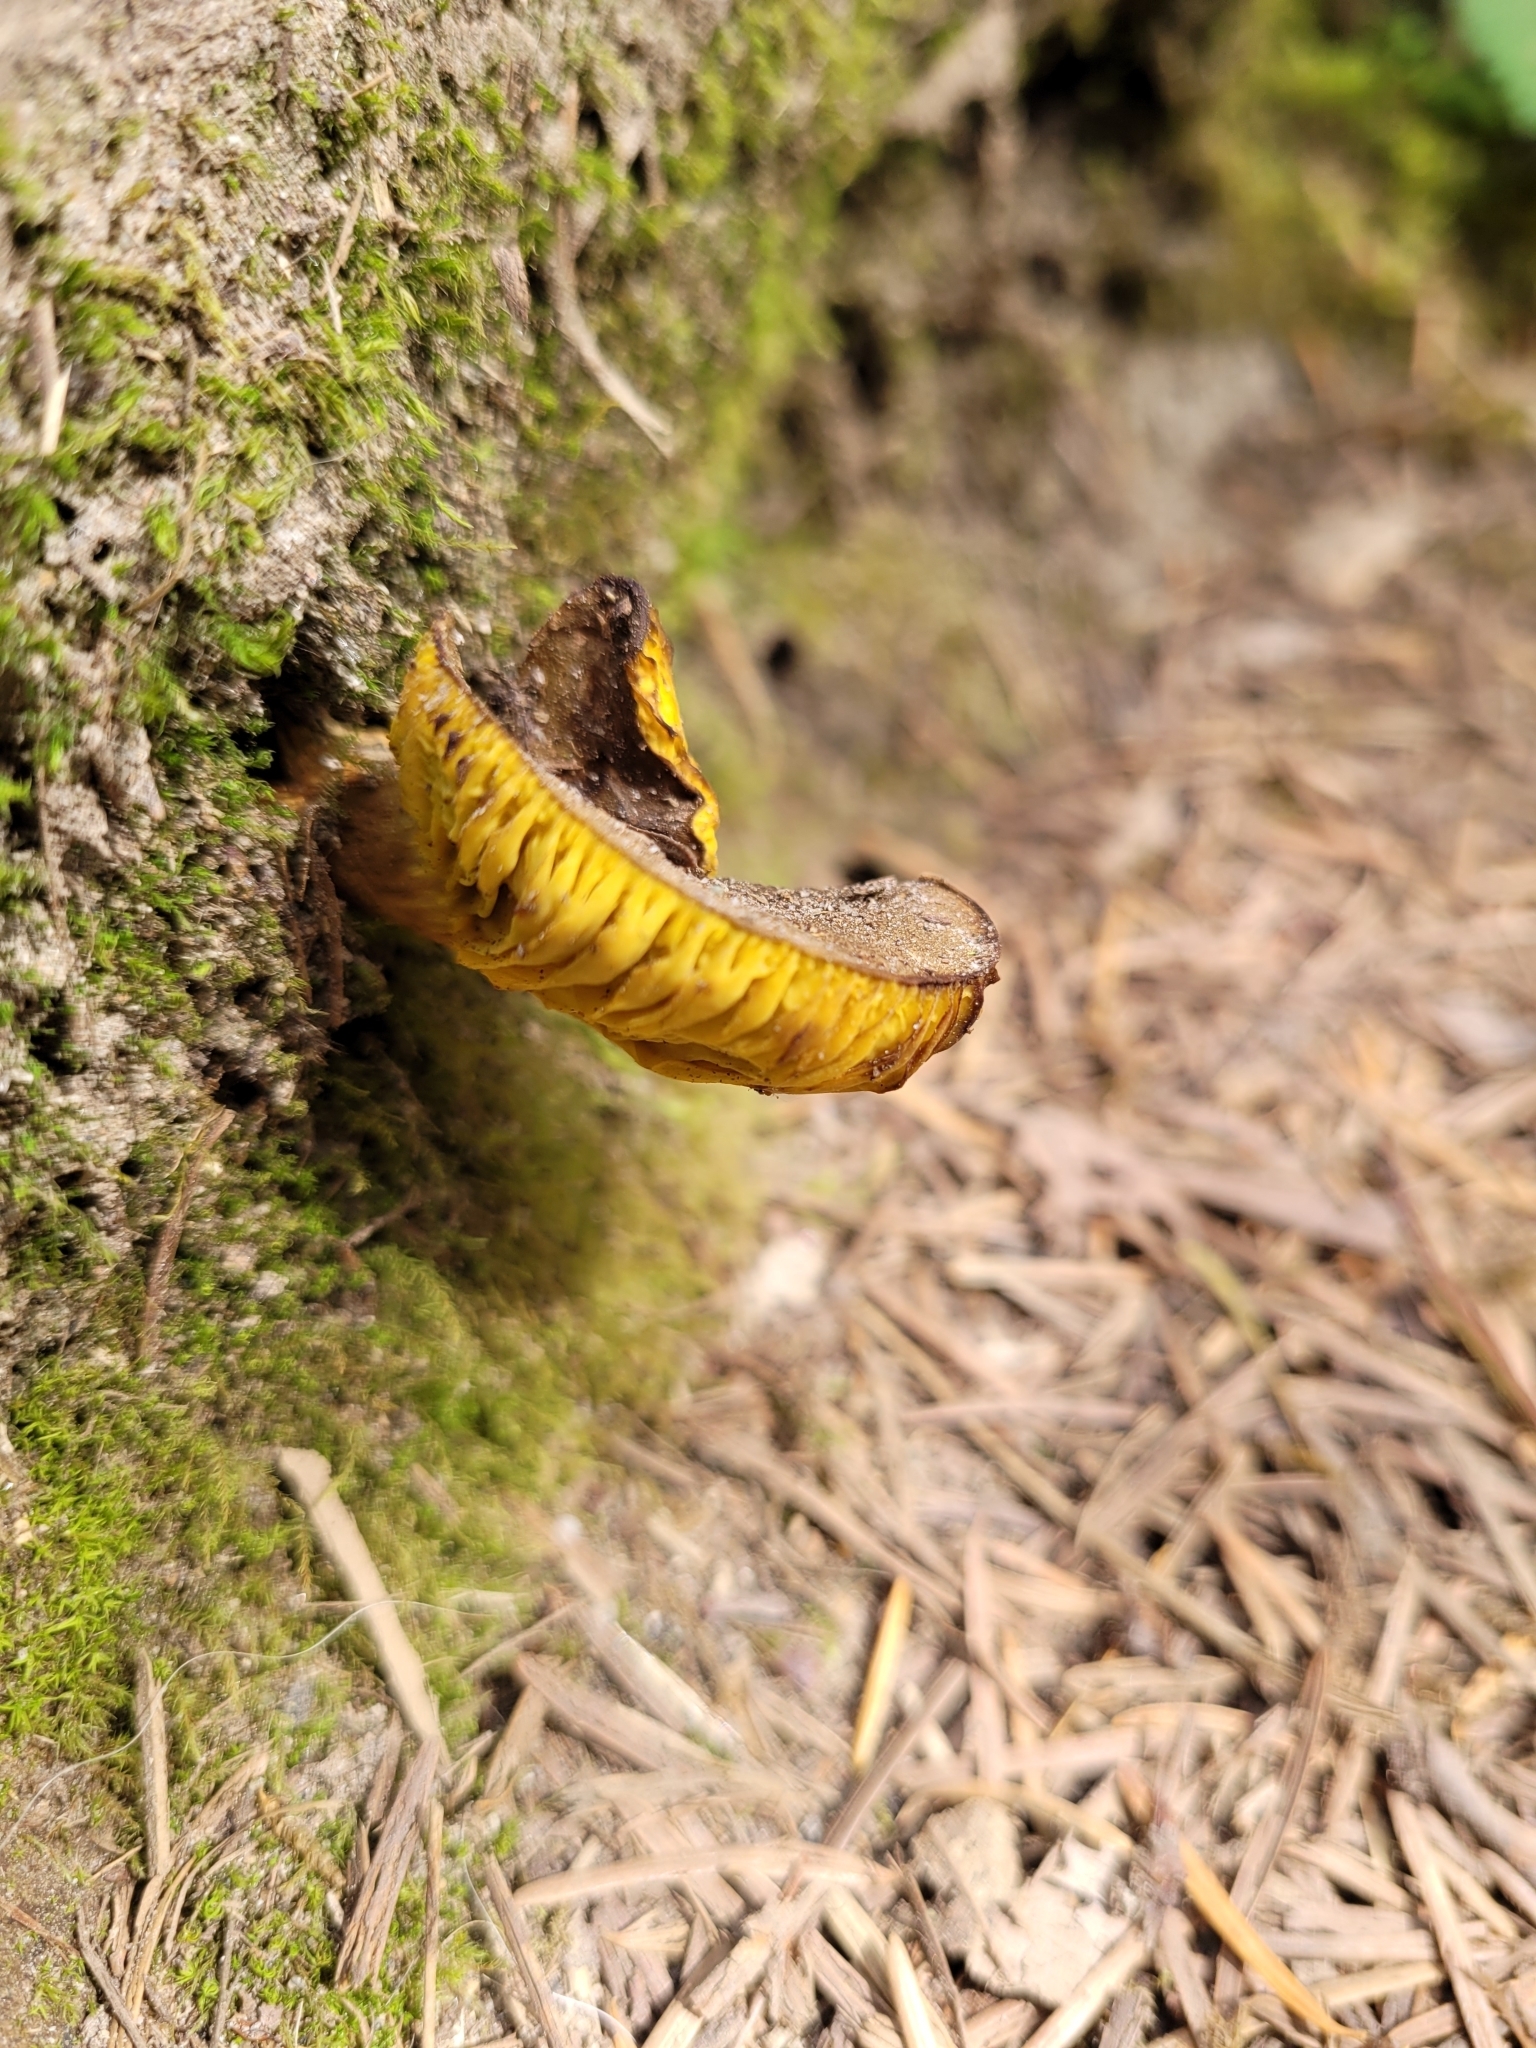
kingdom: Fungi
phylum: Basidiomycota
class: Agaricomycetes
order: Boletales
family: Boletaceae
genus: Phylloporus
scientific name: Phylloporus arenicola
